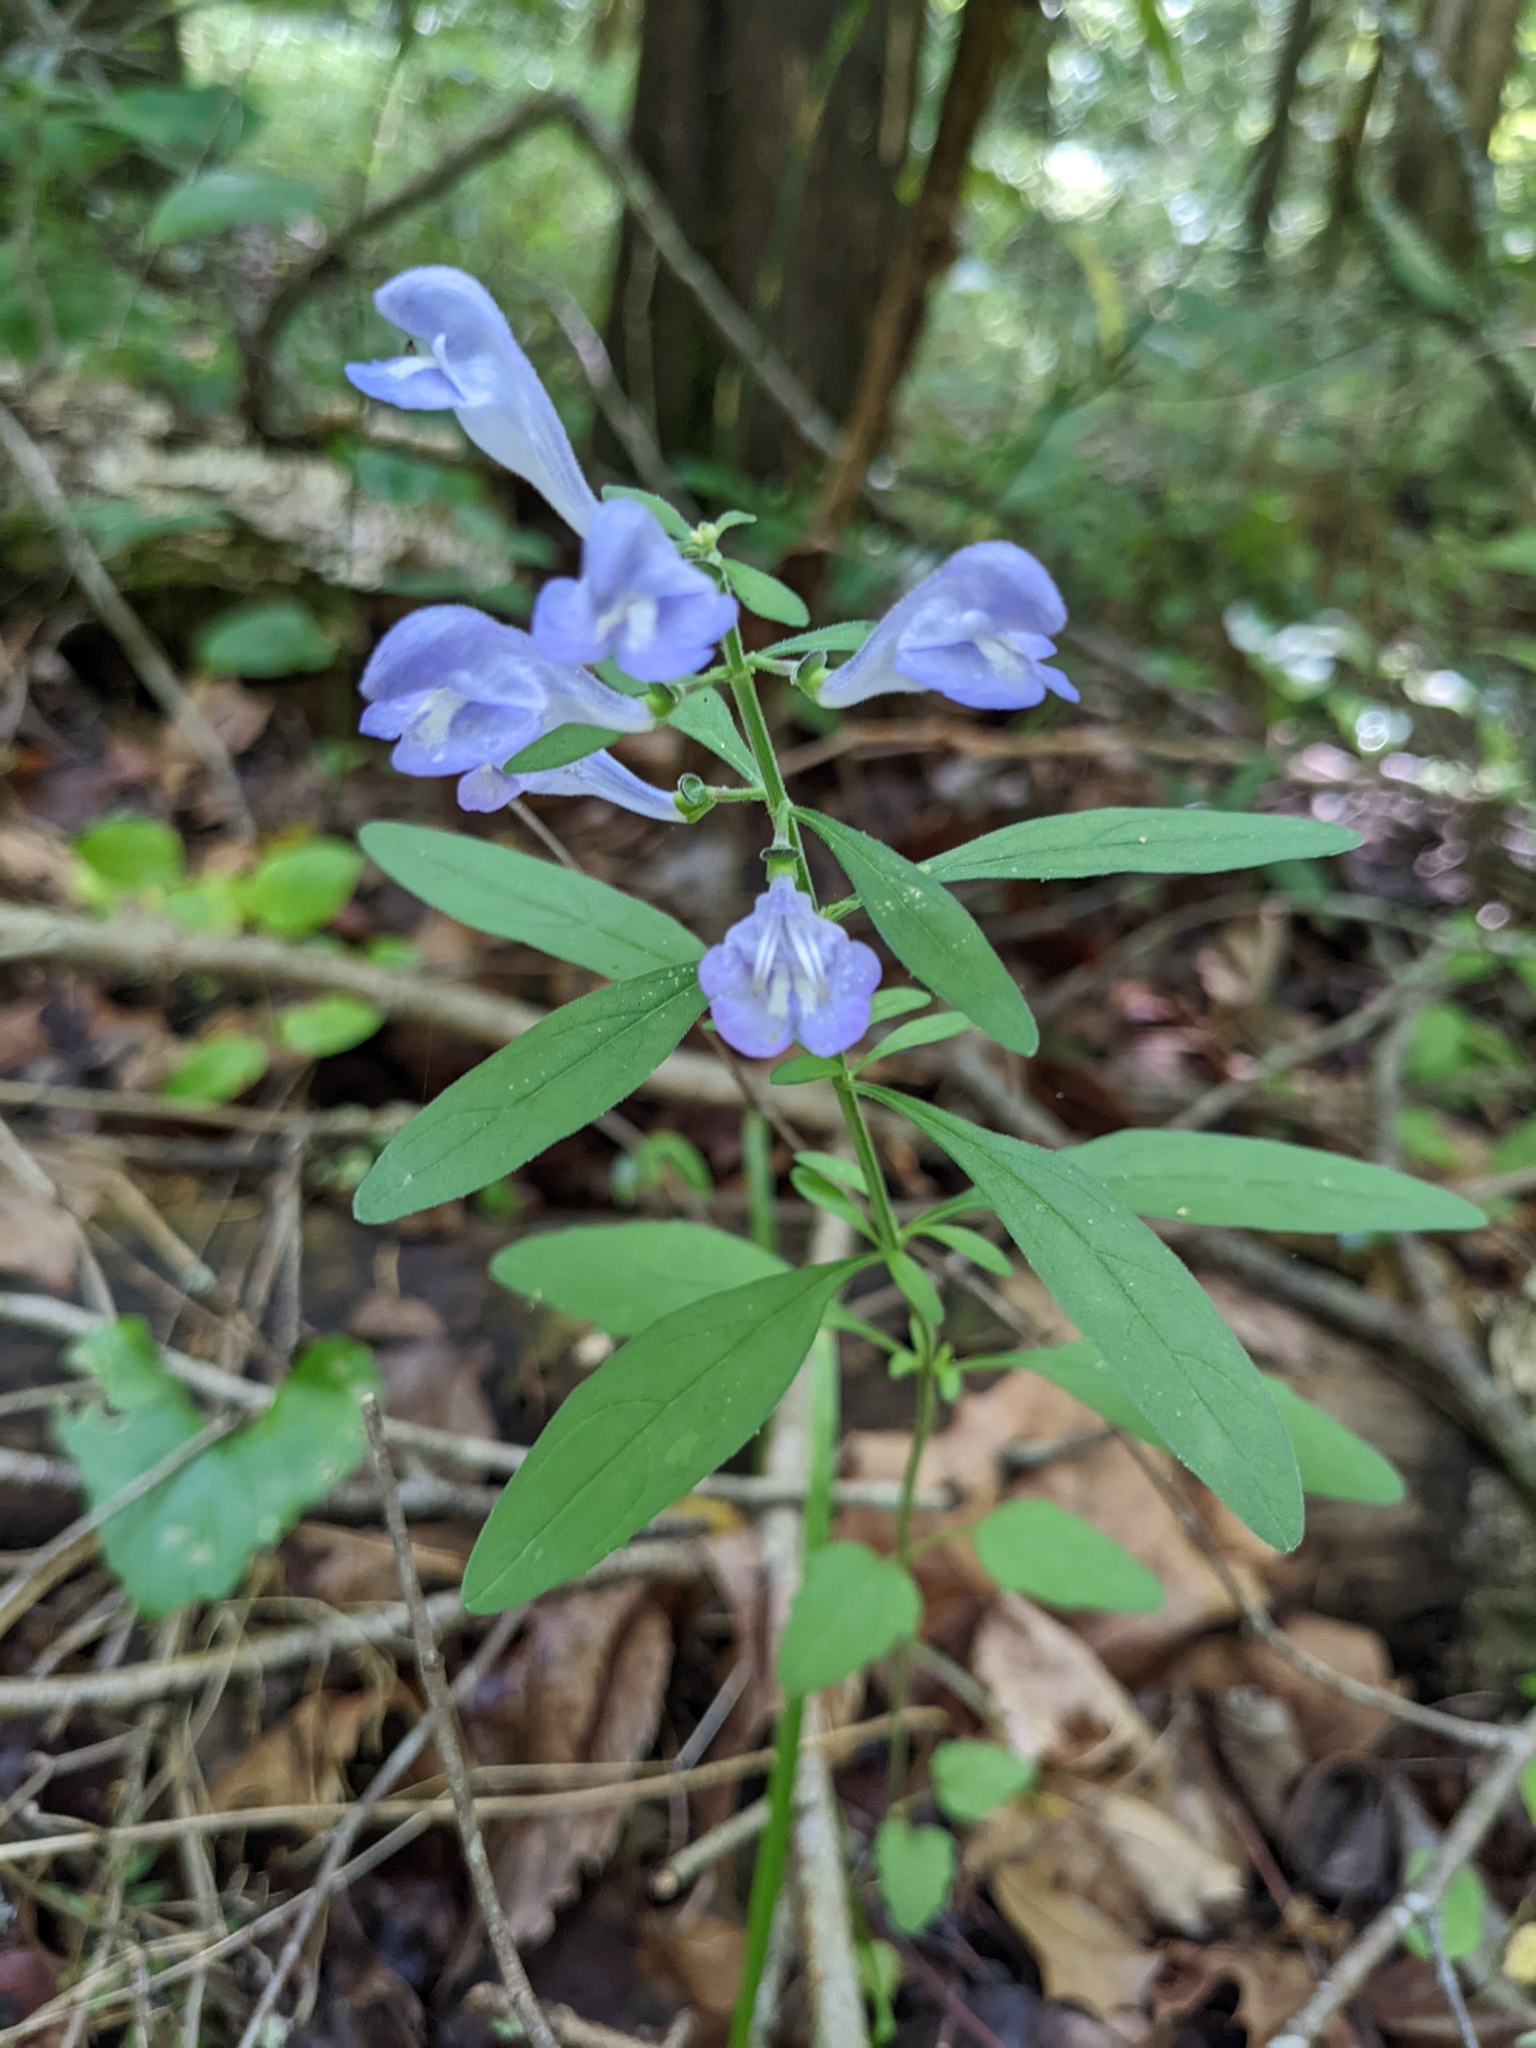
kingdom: Plantae
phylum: Tracheophyta
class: Magnoliopsida
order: Lamiales
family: Lamiaceae
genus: Scutellaria
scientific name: Scutellaria integrifolia
